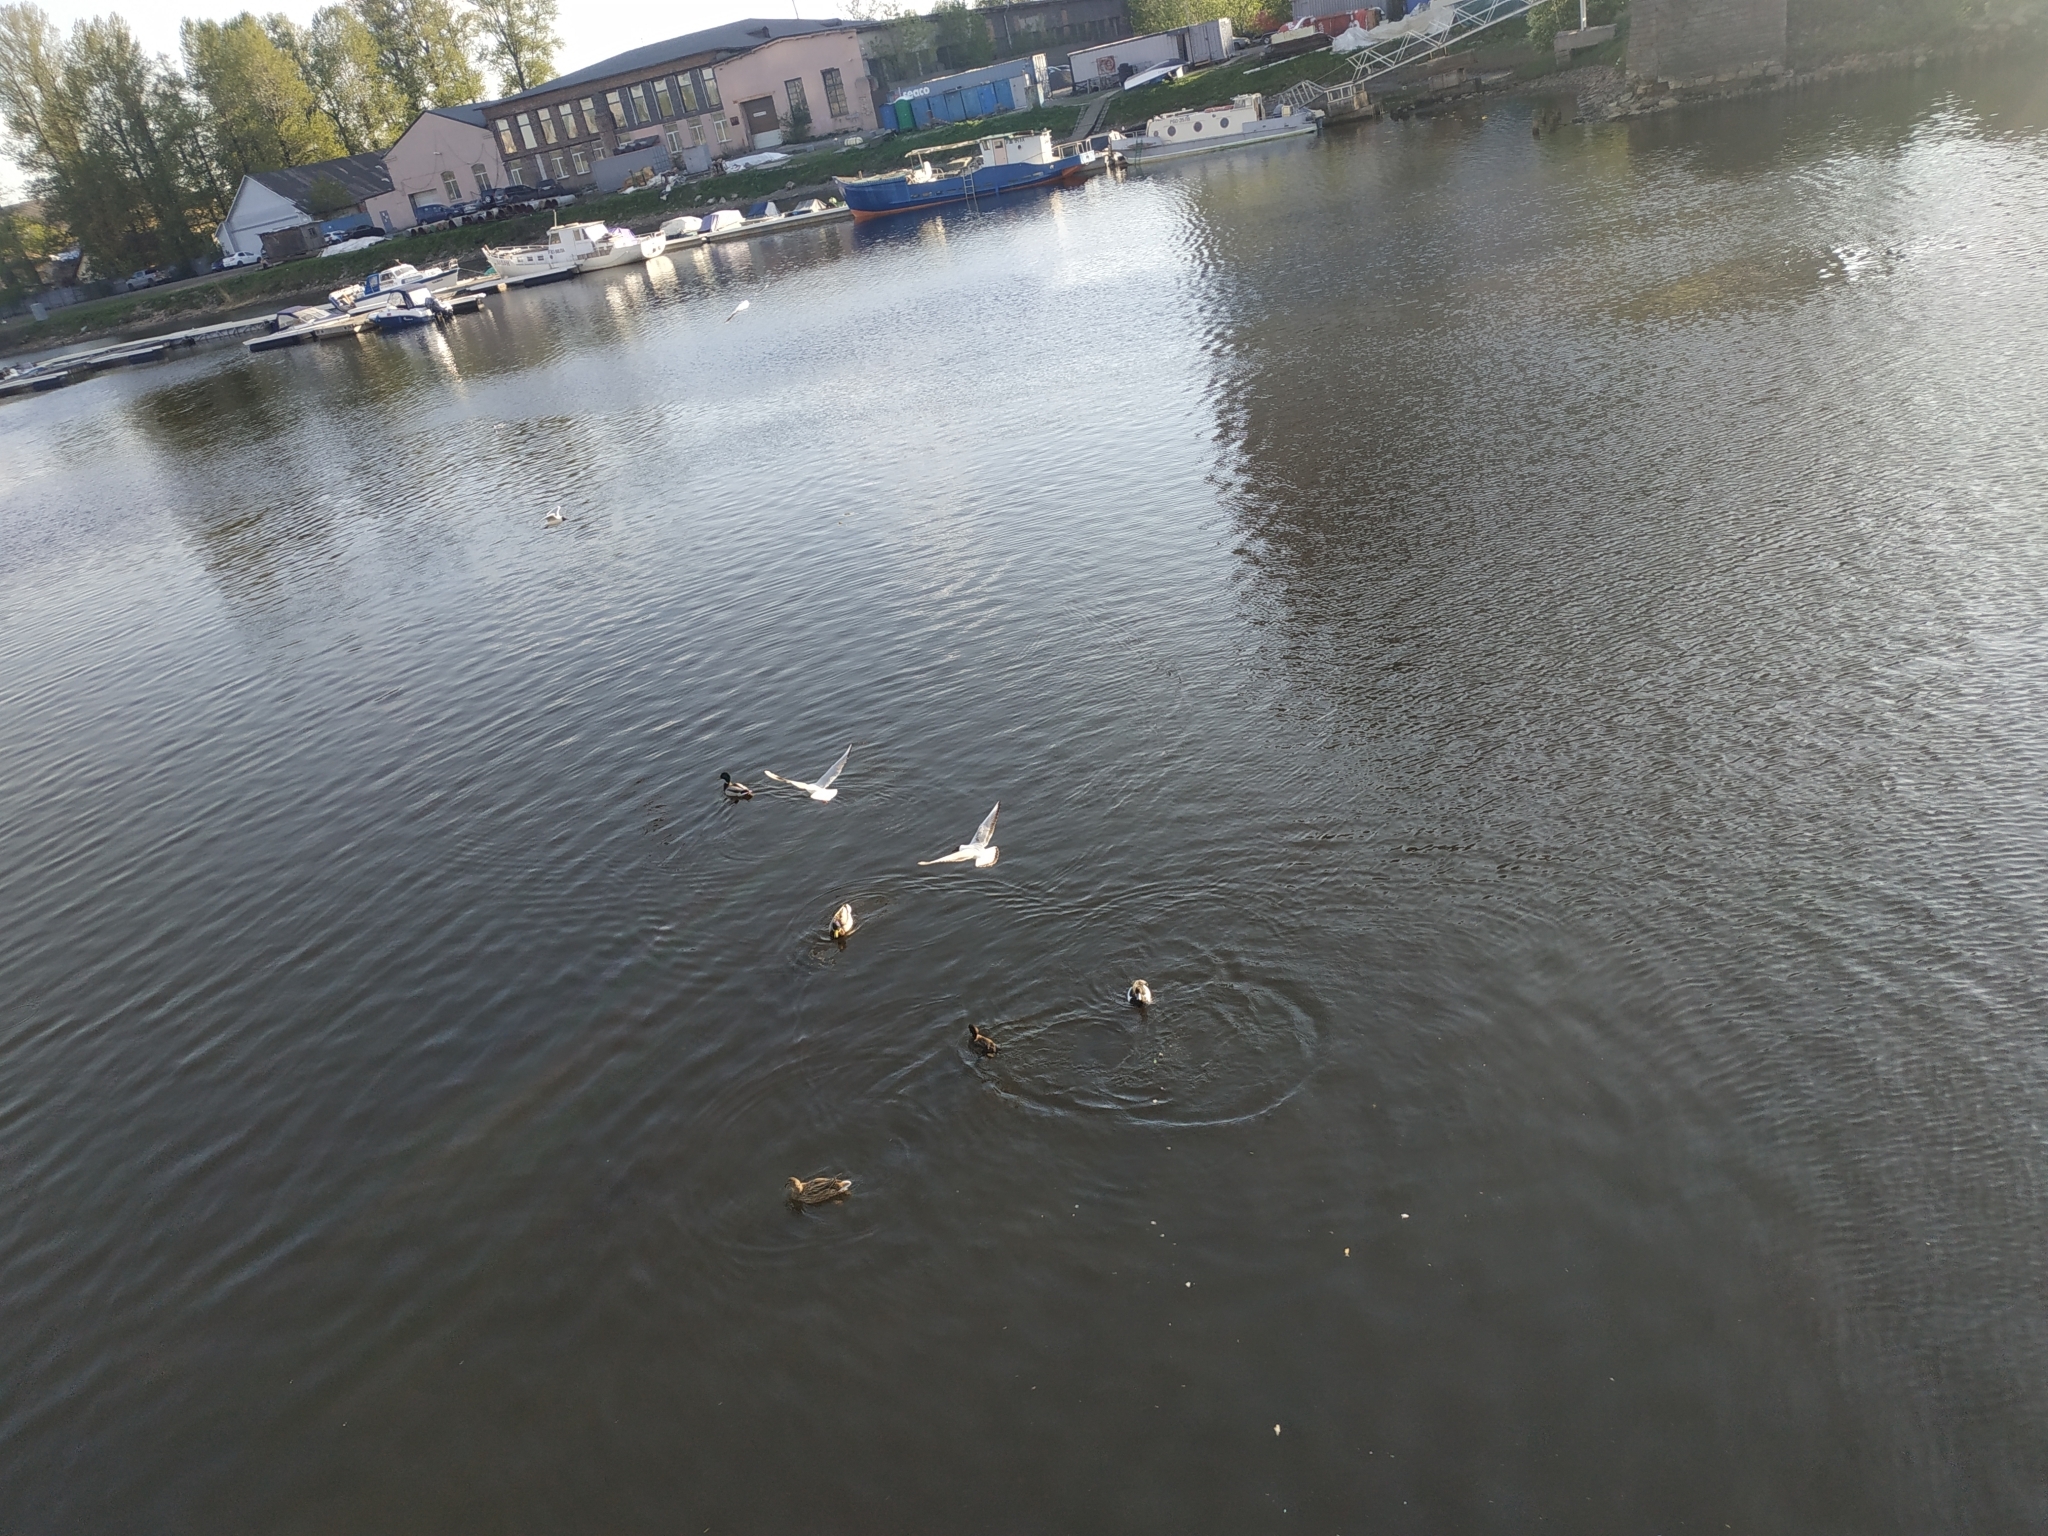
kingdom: Animalia
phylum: Chordata
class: Aves
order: Charadriiformes
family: Laridae
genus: Chroicocephalus
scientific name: Chroicocephalus ridibundus
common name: Black-headed gull
